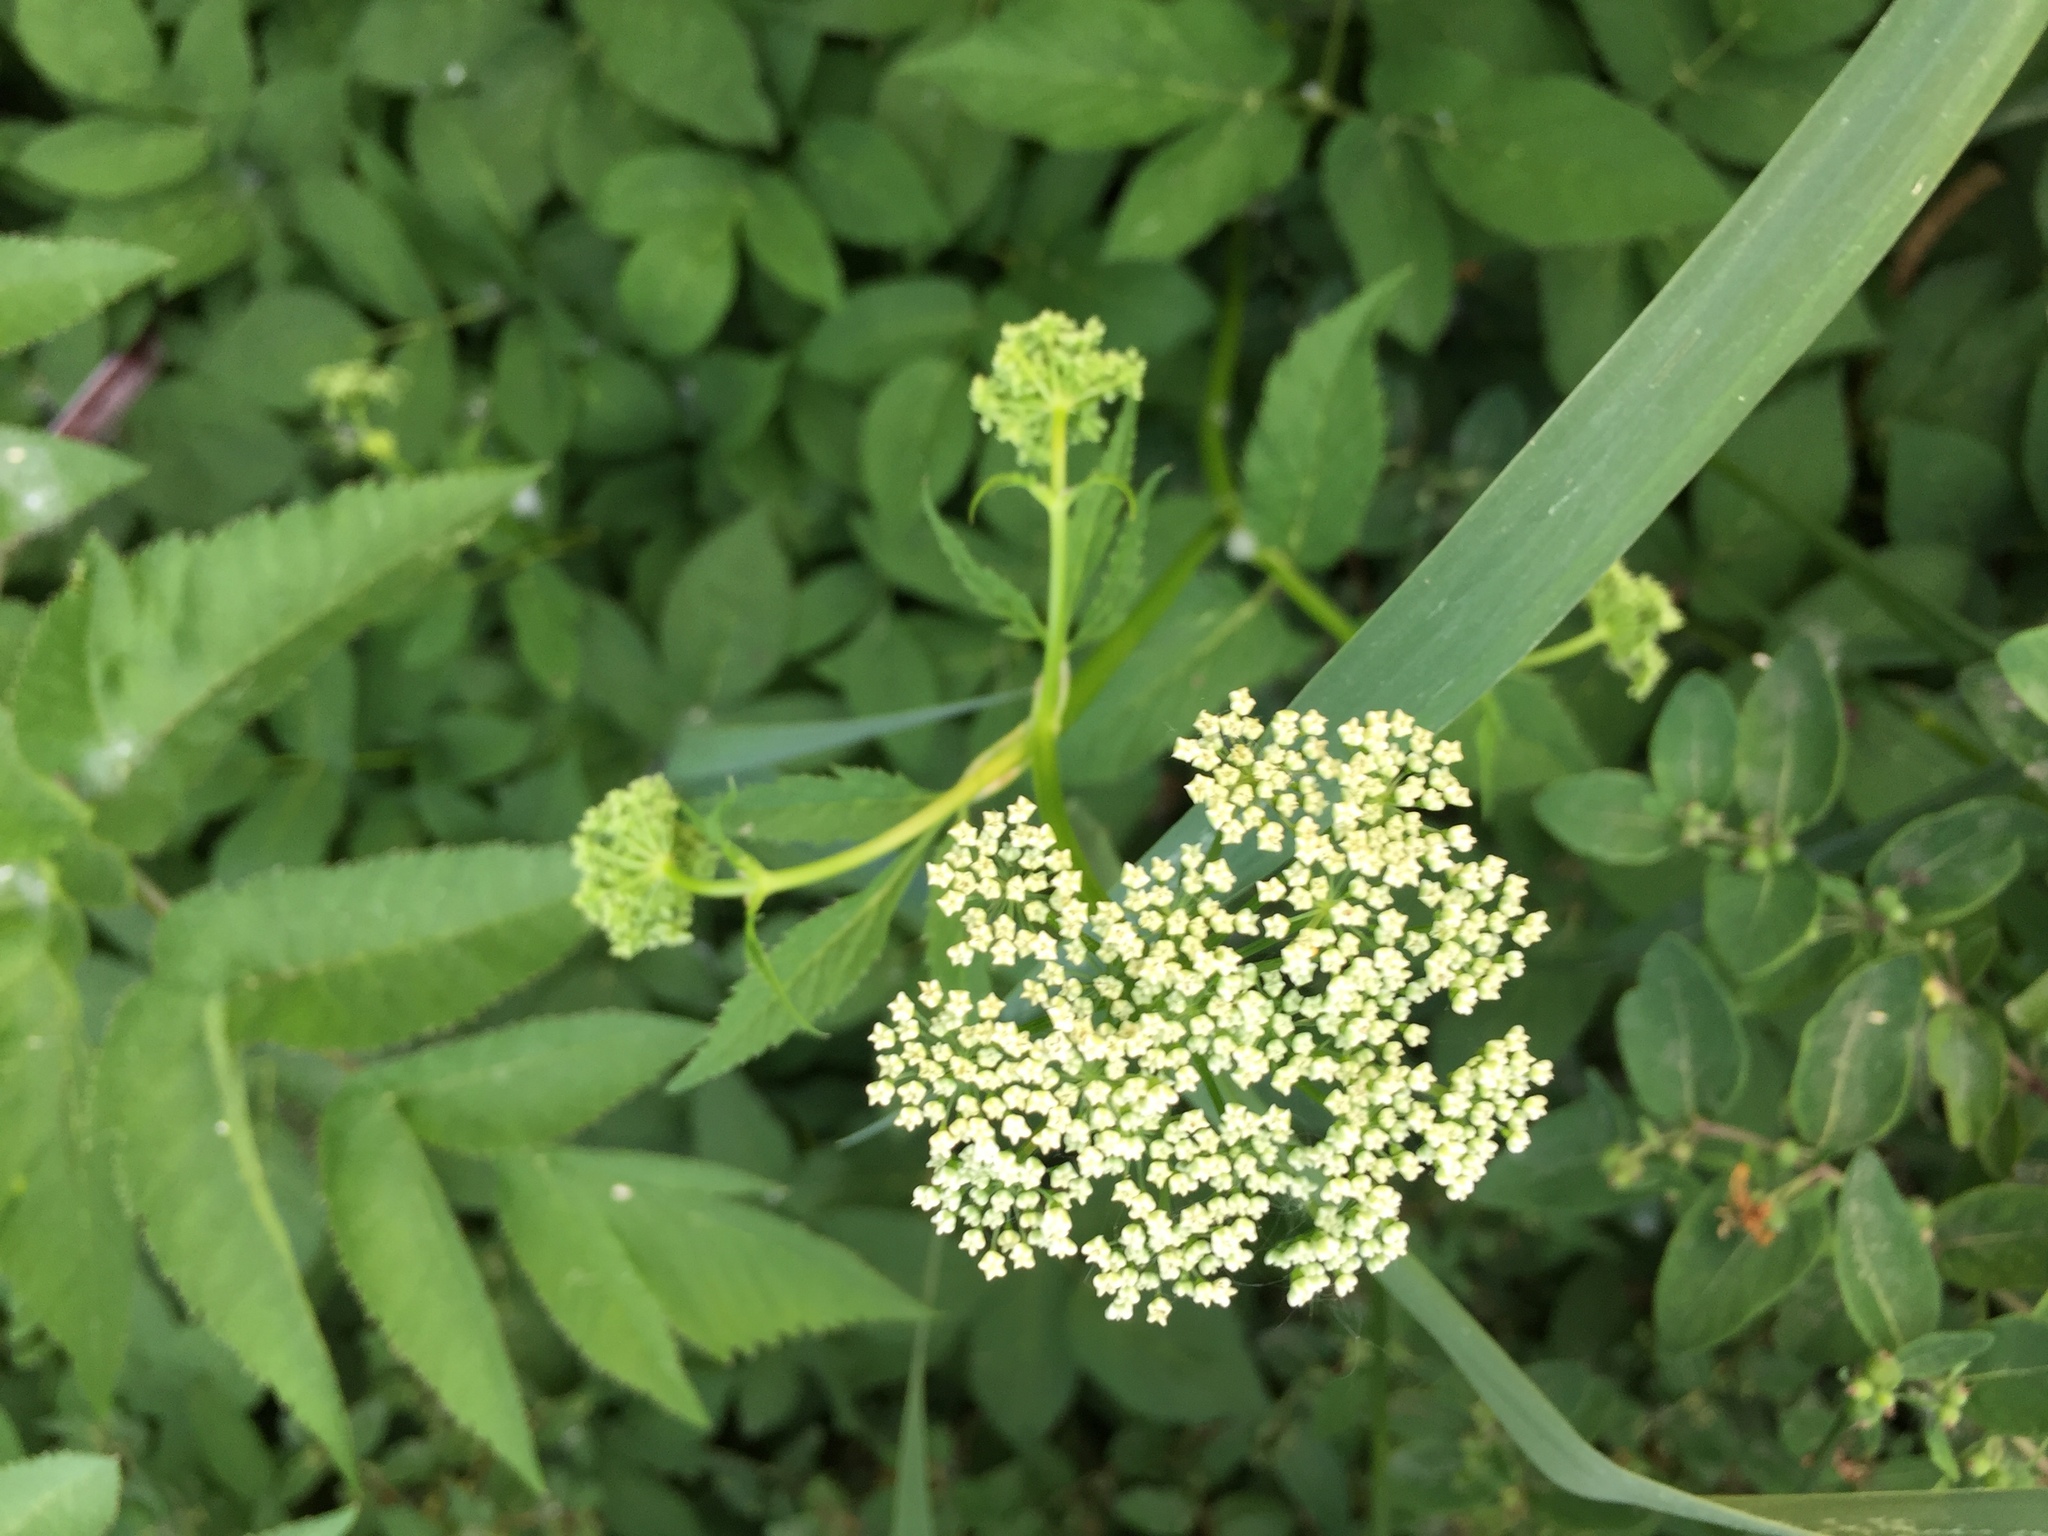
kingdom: Plantae
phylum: Tracheophyta
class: Magnoliopsida
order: Apiales
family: Apiaceae
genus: Aegopodium
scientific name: Aegopodium podagraria
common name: Ground-elder
